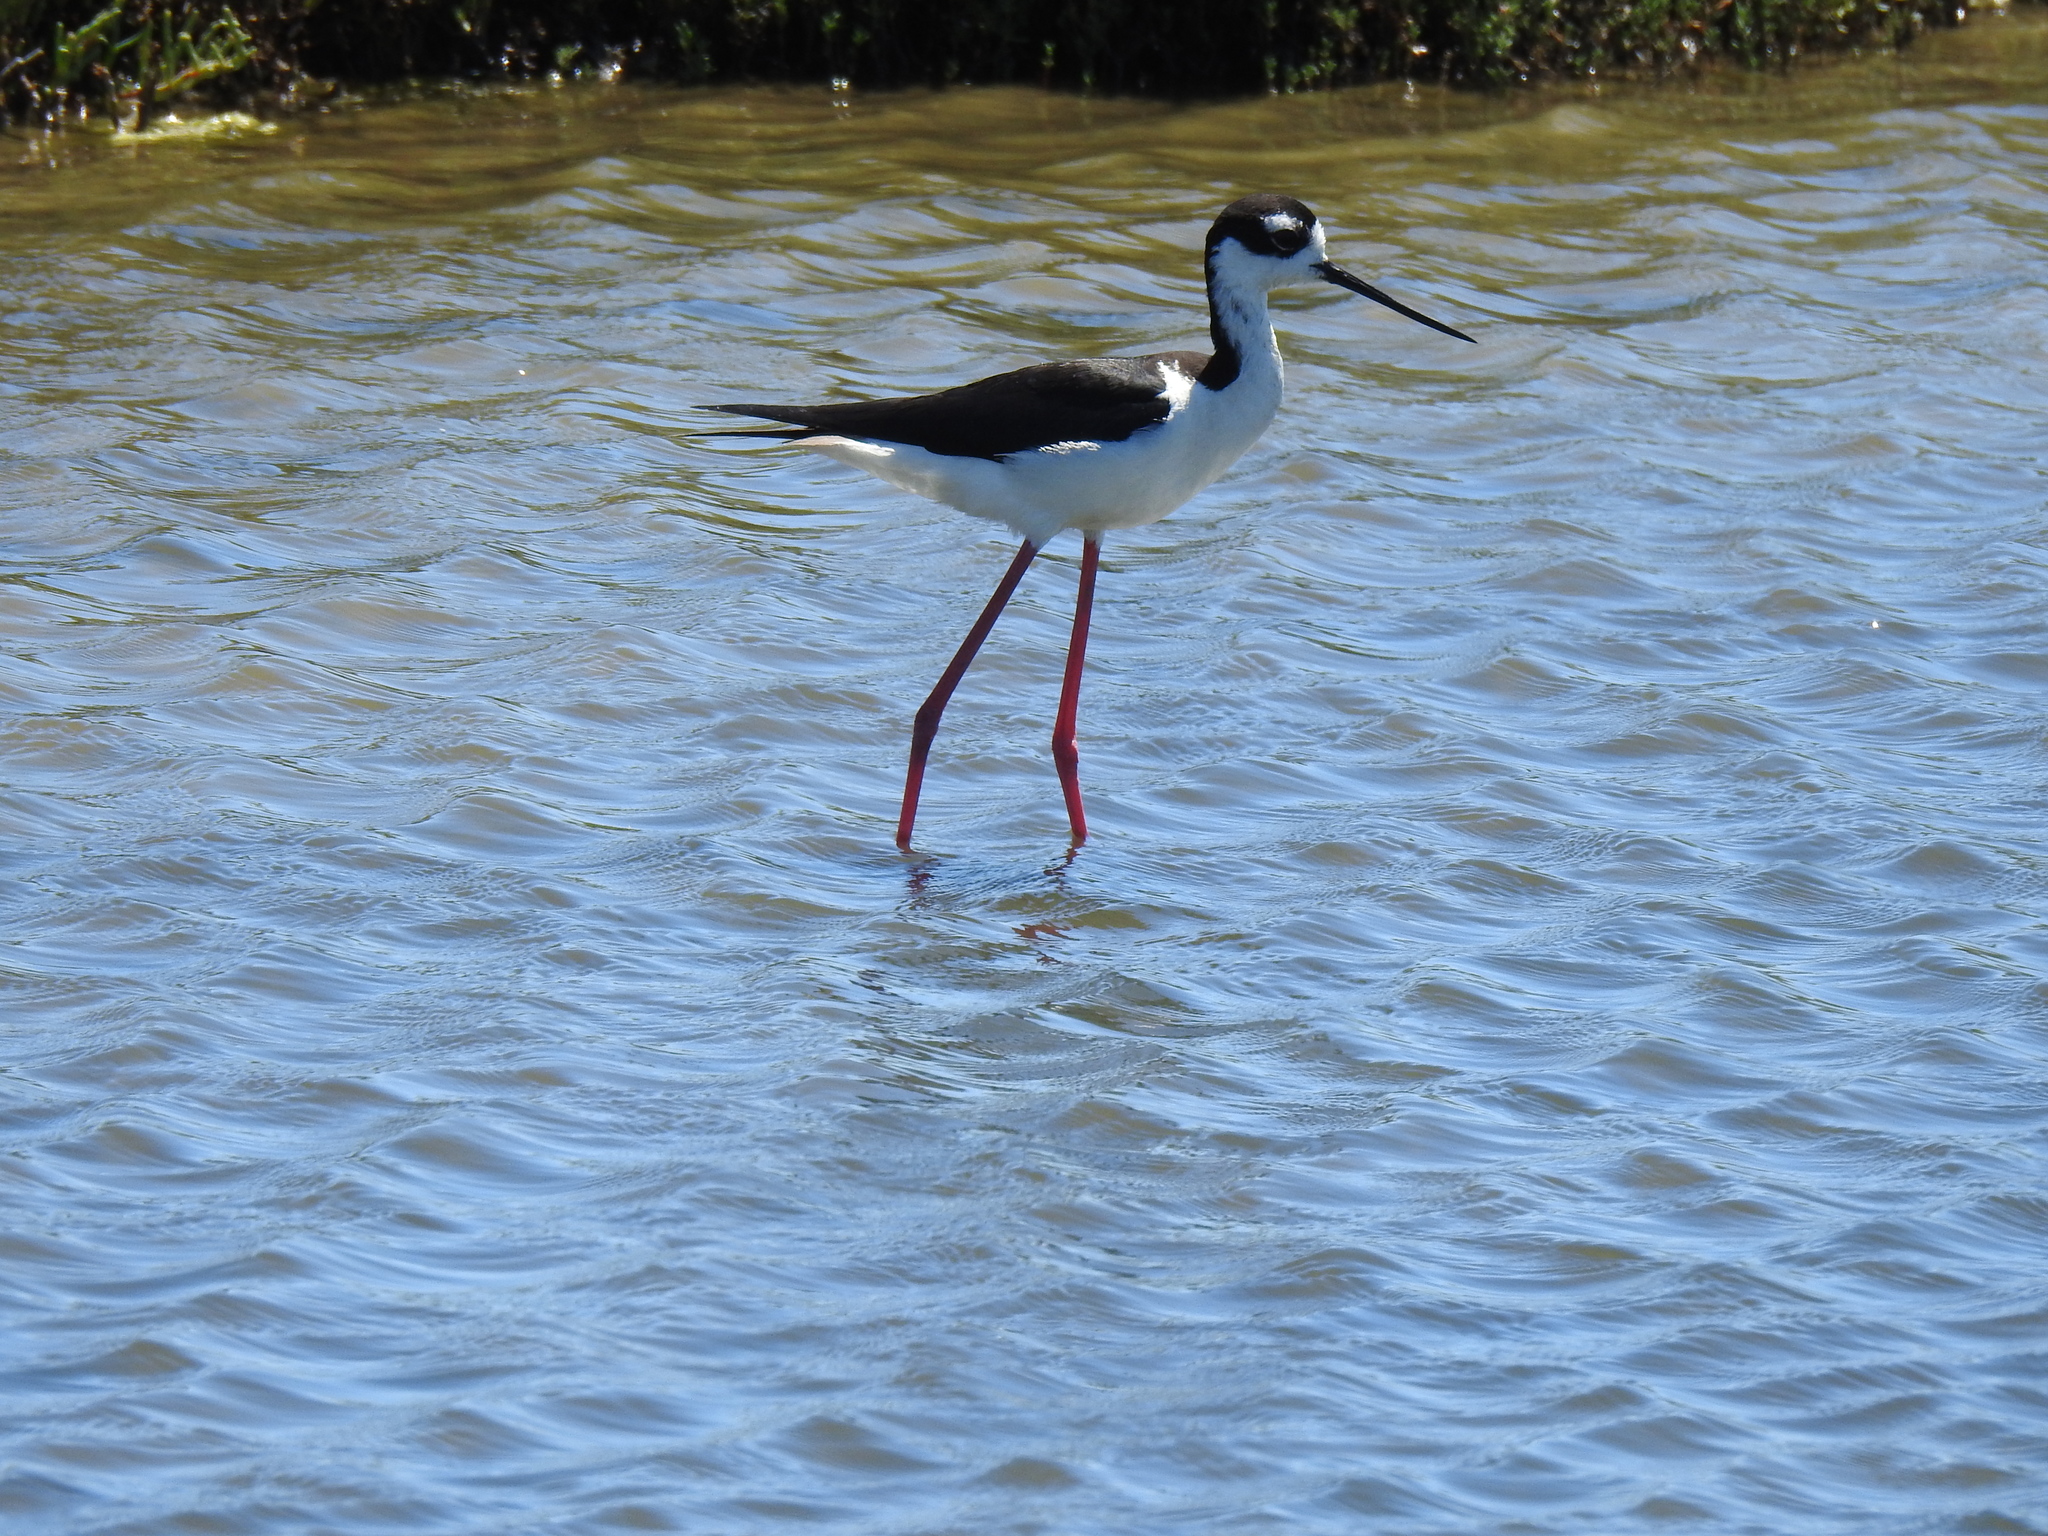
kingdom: Animalia
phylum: Chordata
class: Aves
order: Charadriiformes
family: Recurvirostridae
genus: Himantopus
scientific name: Himantopus mexicanus
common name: Black-necked stilt
